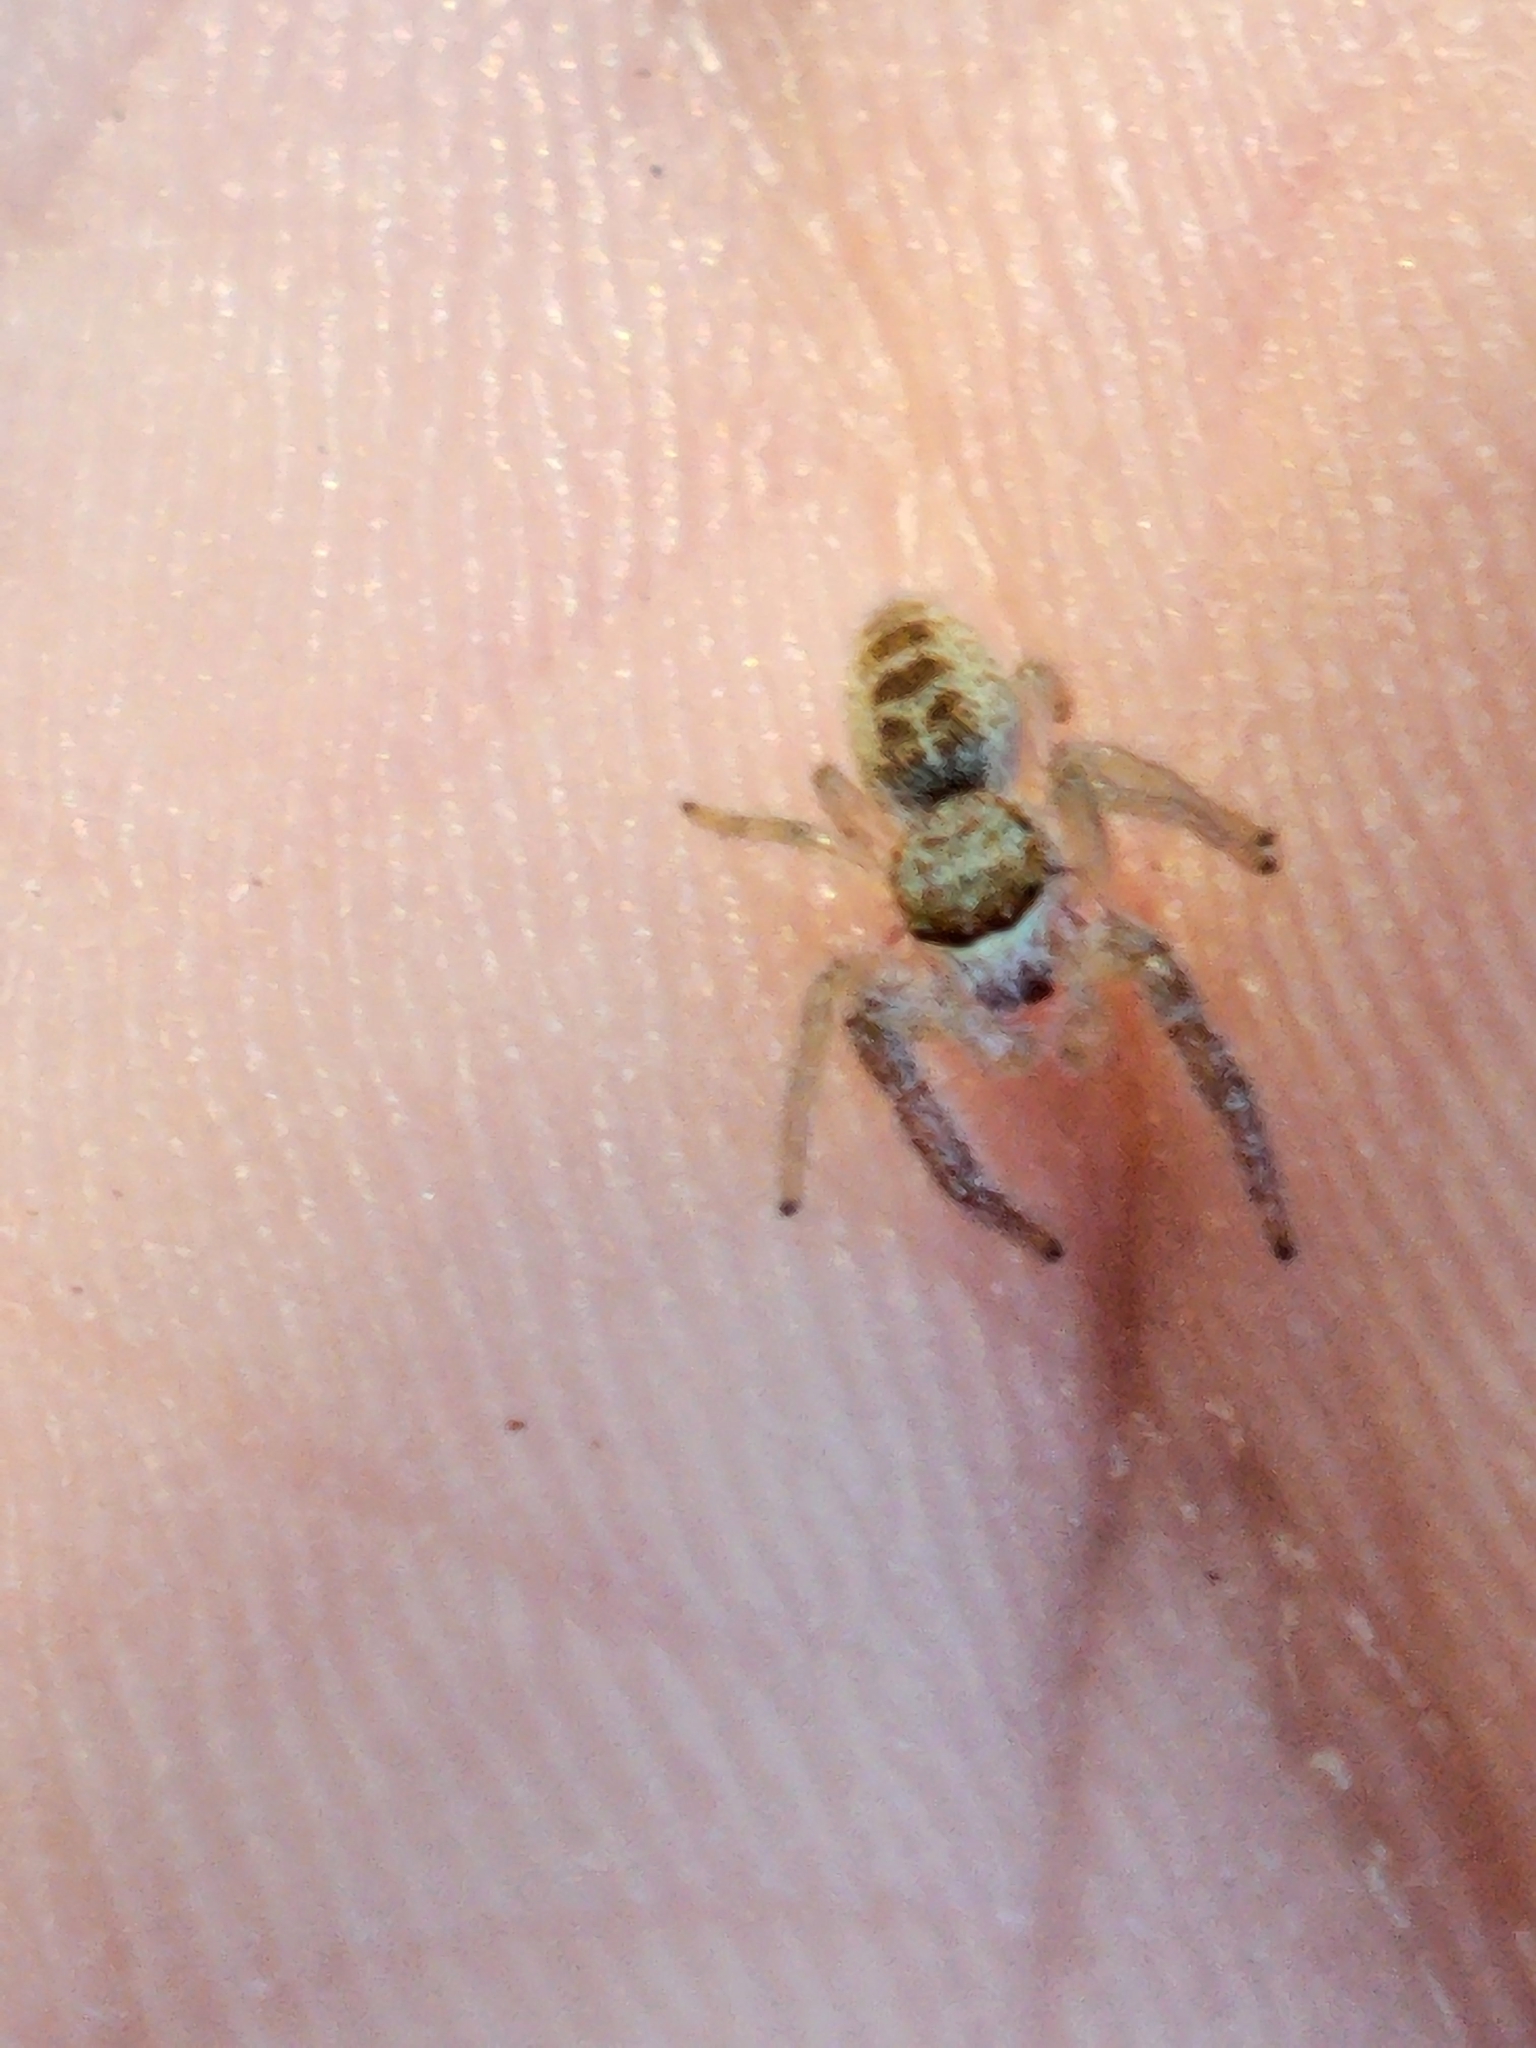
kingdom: Animalia
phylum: Arthropoda
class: Arachnida
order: Araneae
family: Salticidae
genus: Hentzia
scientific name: Hentzia mitrata
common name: White-jawed jumping spider
